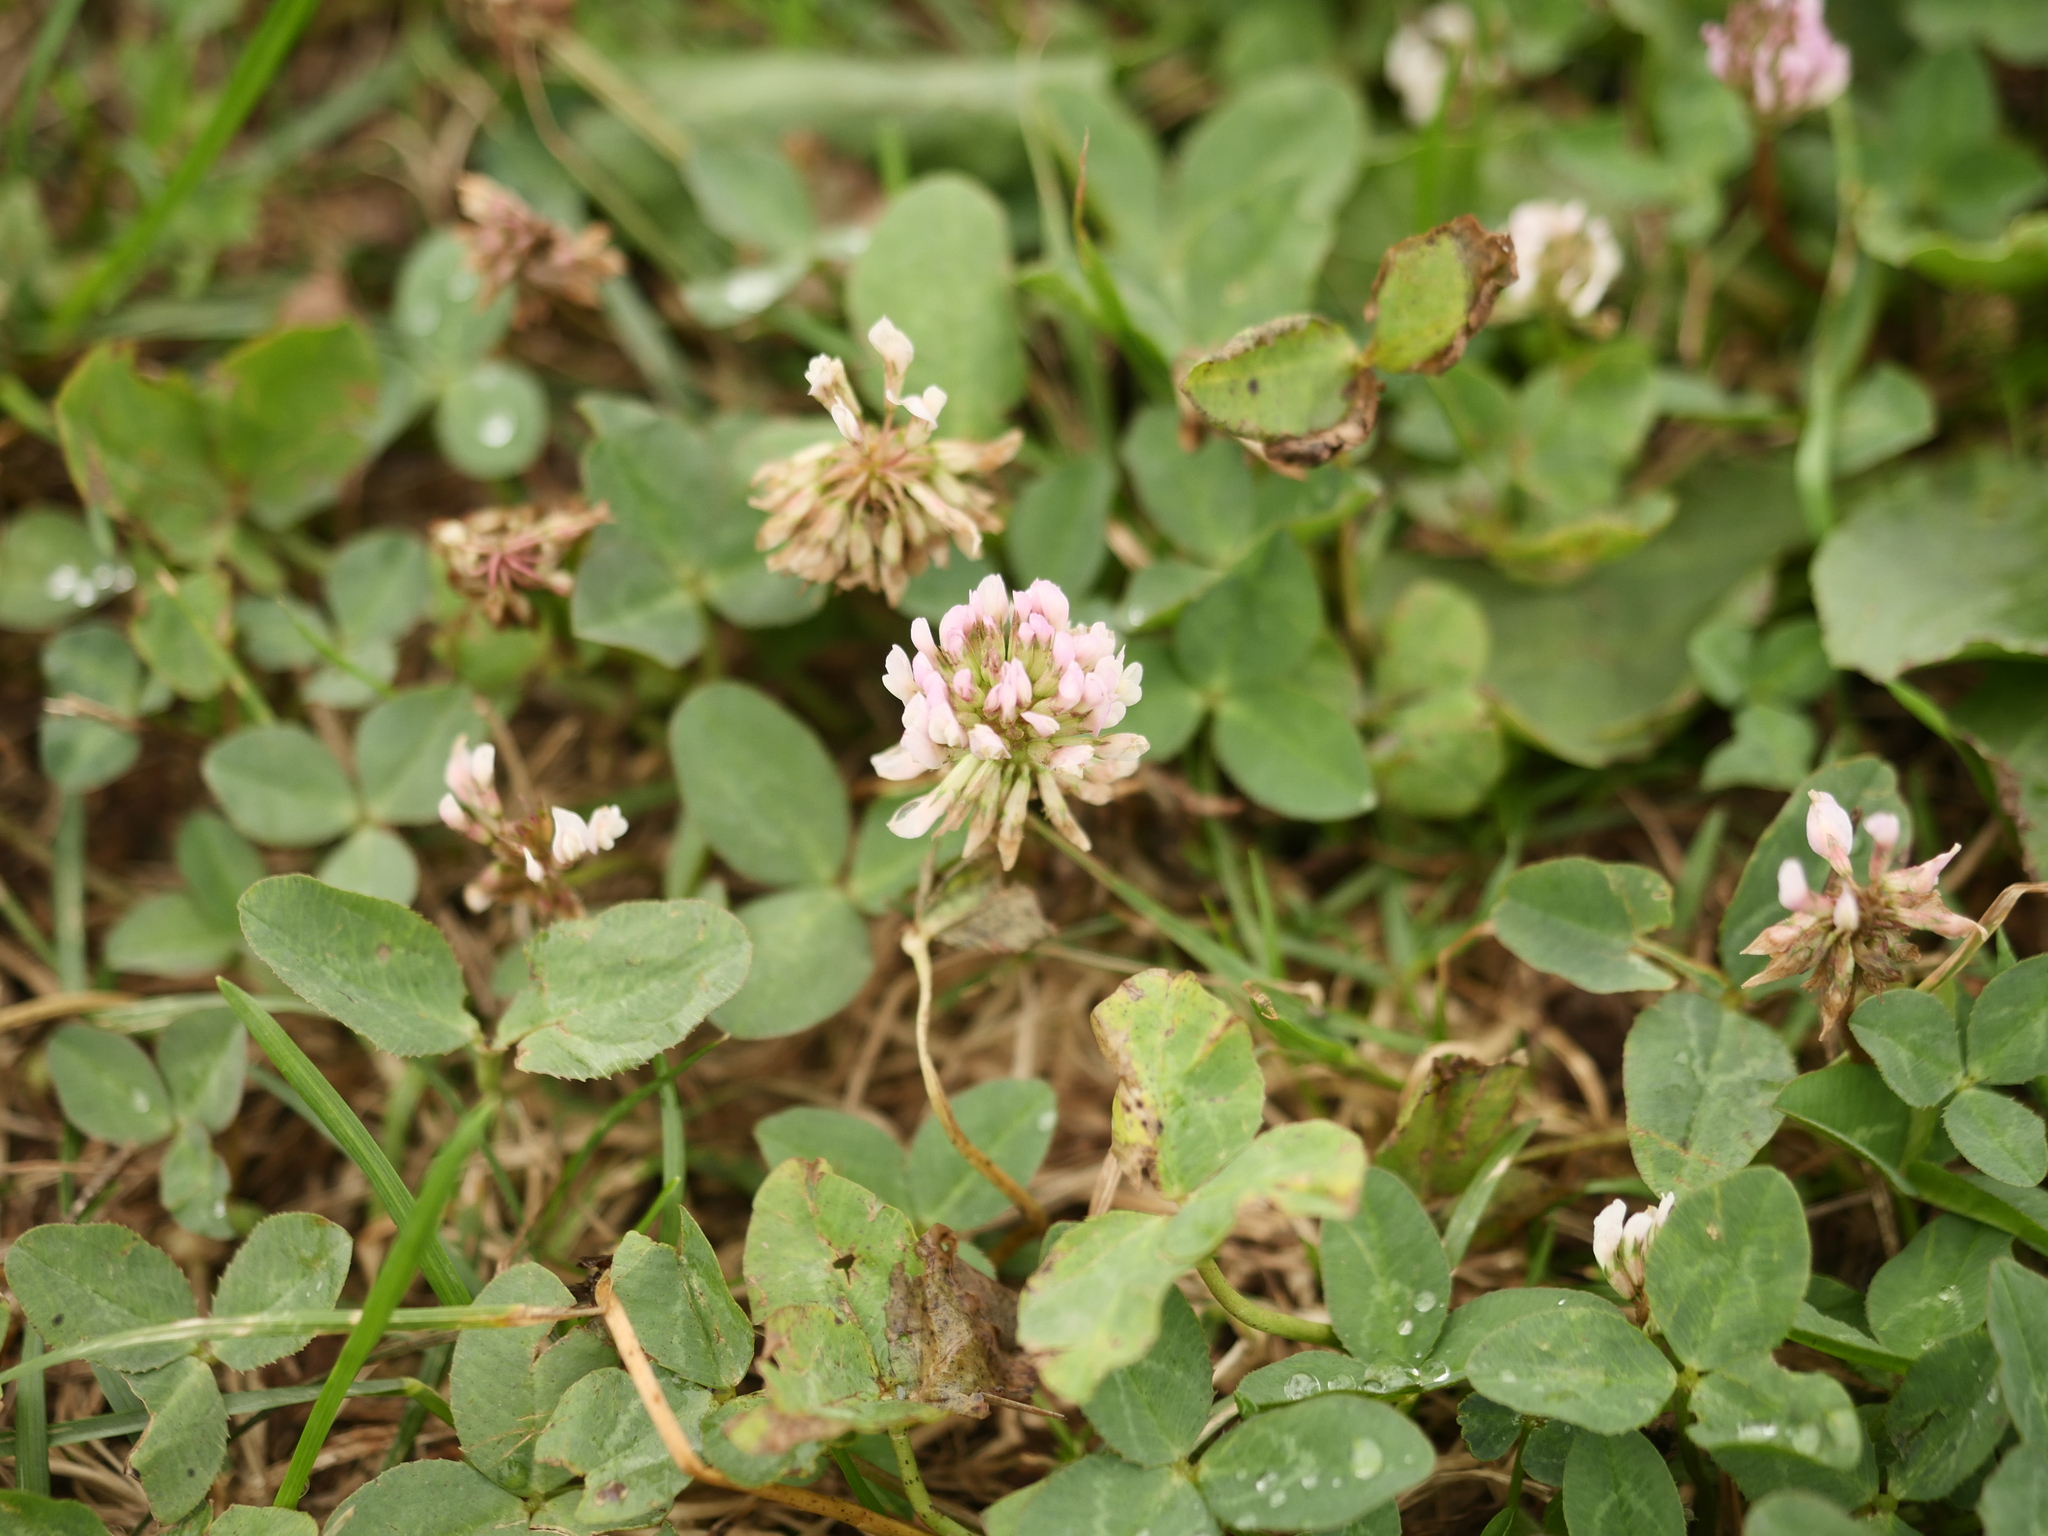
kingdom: Plantae
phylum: Tracheophyta
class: Magnoliopsida
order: Fabales
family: Fabaceae
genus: Trifolium
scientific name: Trifolium repens
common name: White clover
